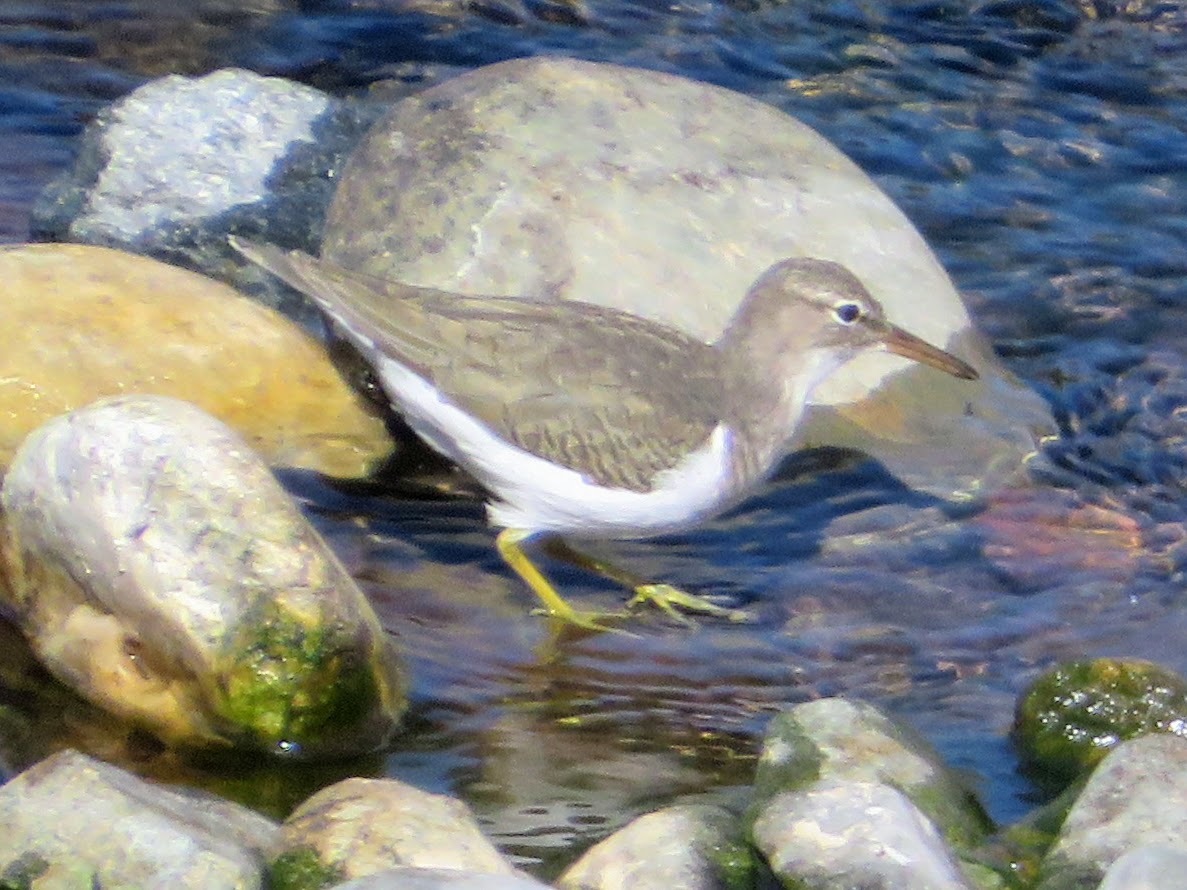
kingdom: Animalia
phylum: Chordata
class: Aves
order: Charadriiformes
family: Scolopacidae
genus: Actitis
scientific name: Actitis macularius
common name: Spotted sandpiper
